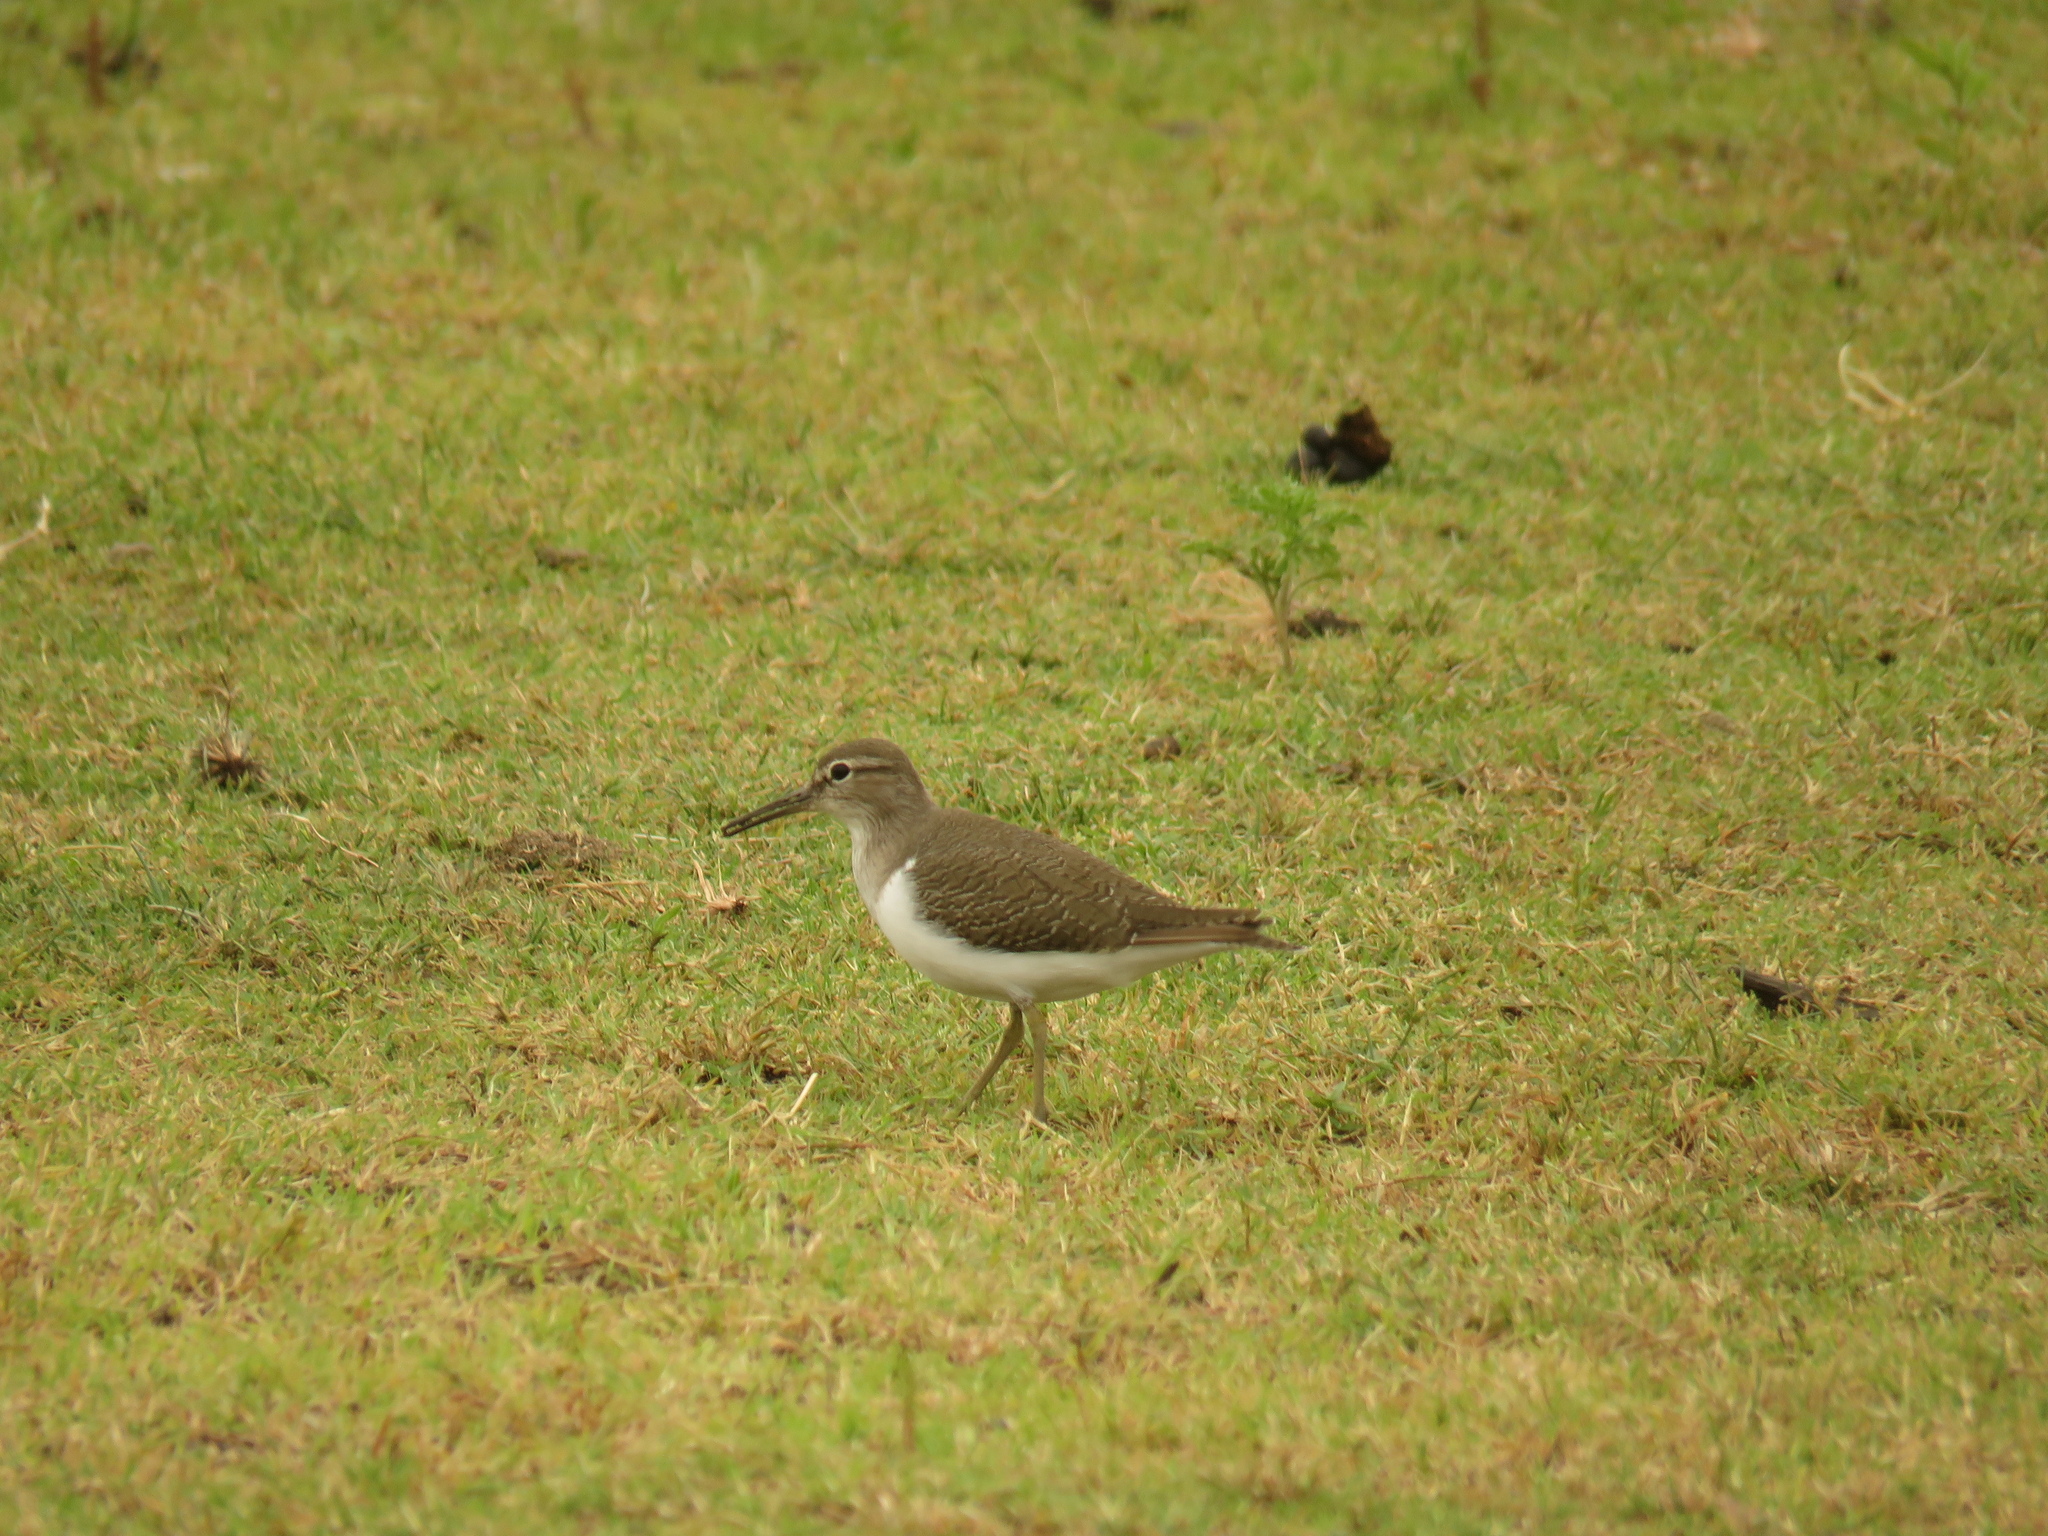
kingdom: Animalia
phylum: Chordata
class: Aves
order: Charadriiformes
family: Scolopacidae
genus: Actitis
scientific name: Actitis hypoleucos
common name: Common sandpiper
